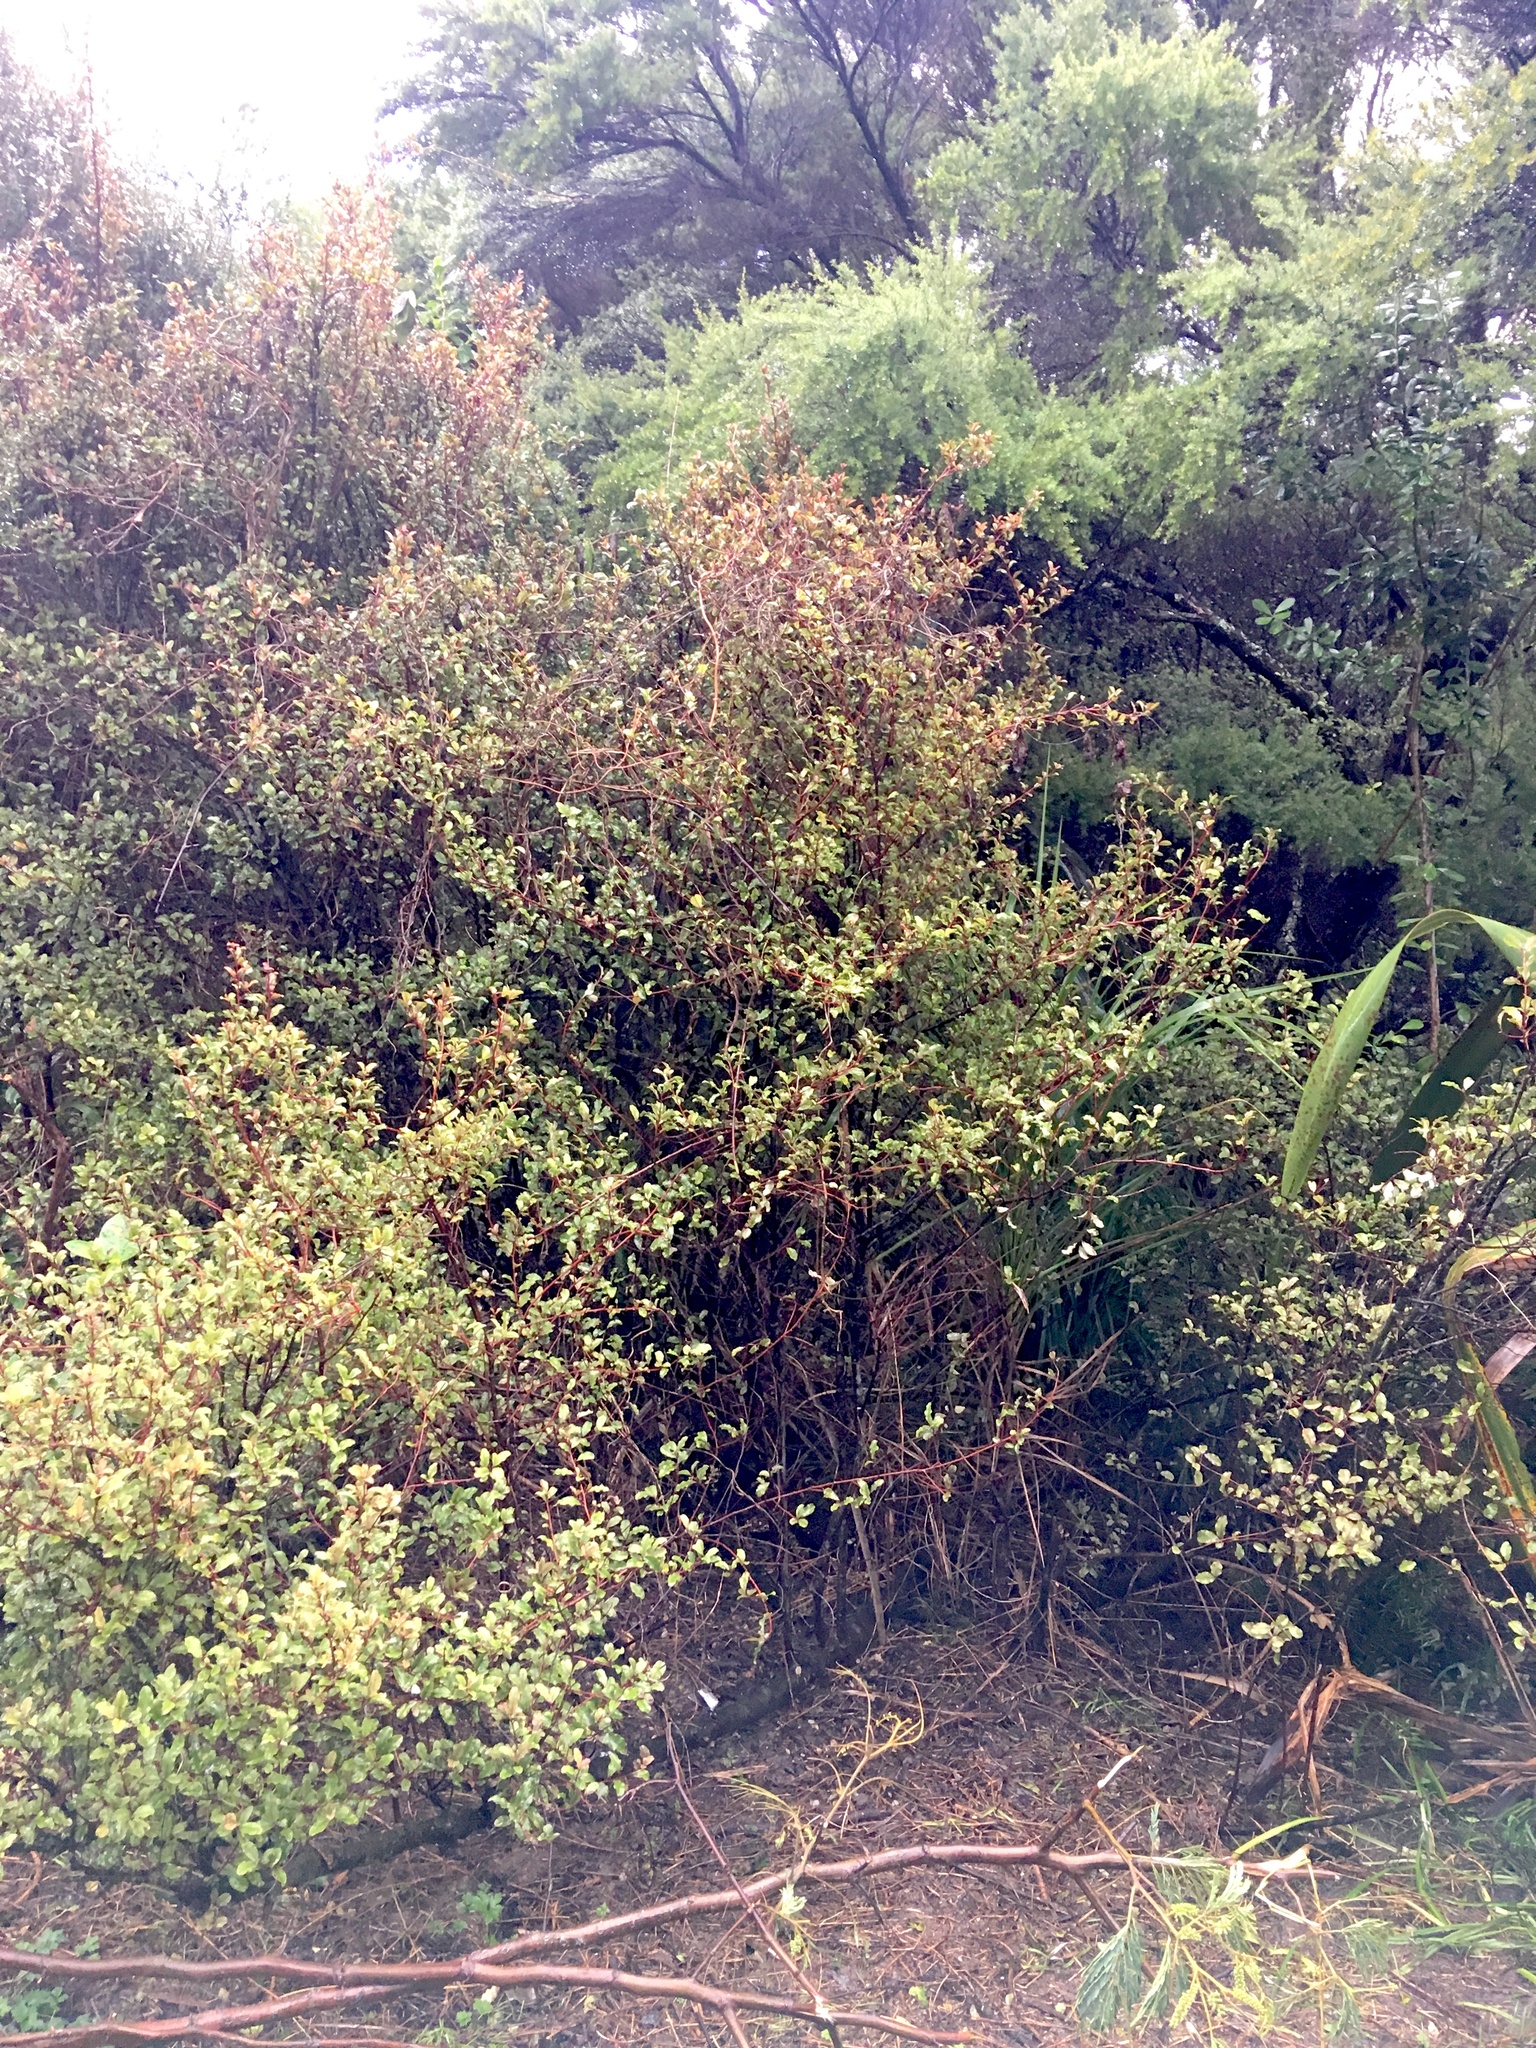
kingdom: Plantae
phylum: Tracheophyta
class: Magnoliopsida
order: Ericales
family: Primulaceae
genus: Myrsine
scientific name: Myrsine australis
